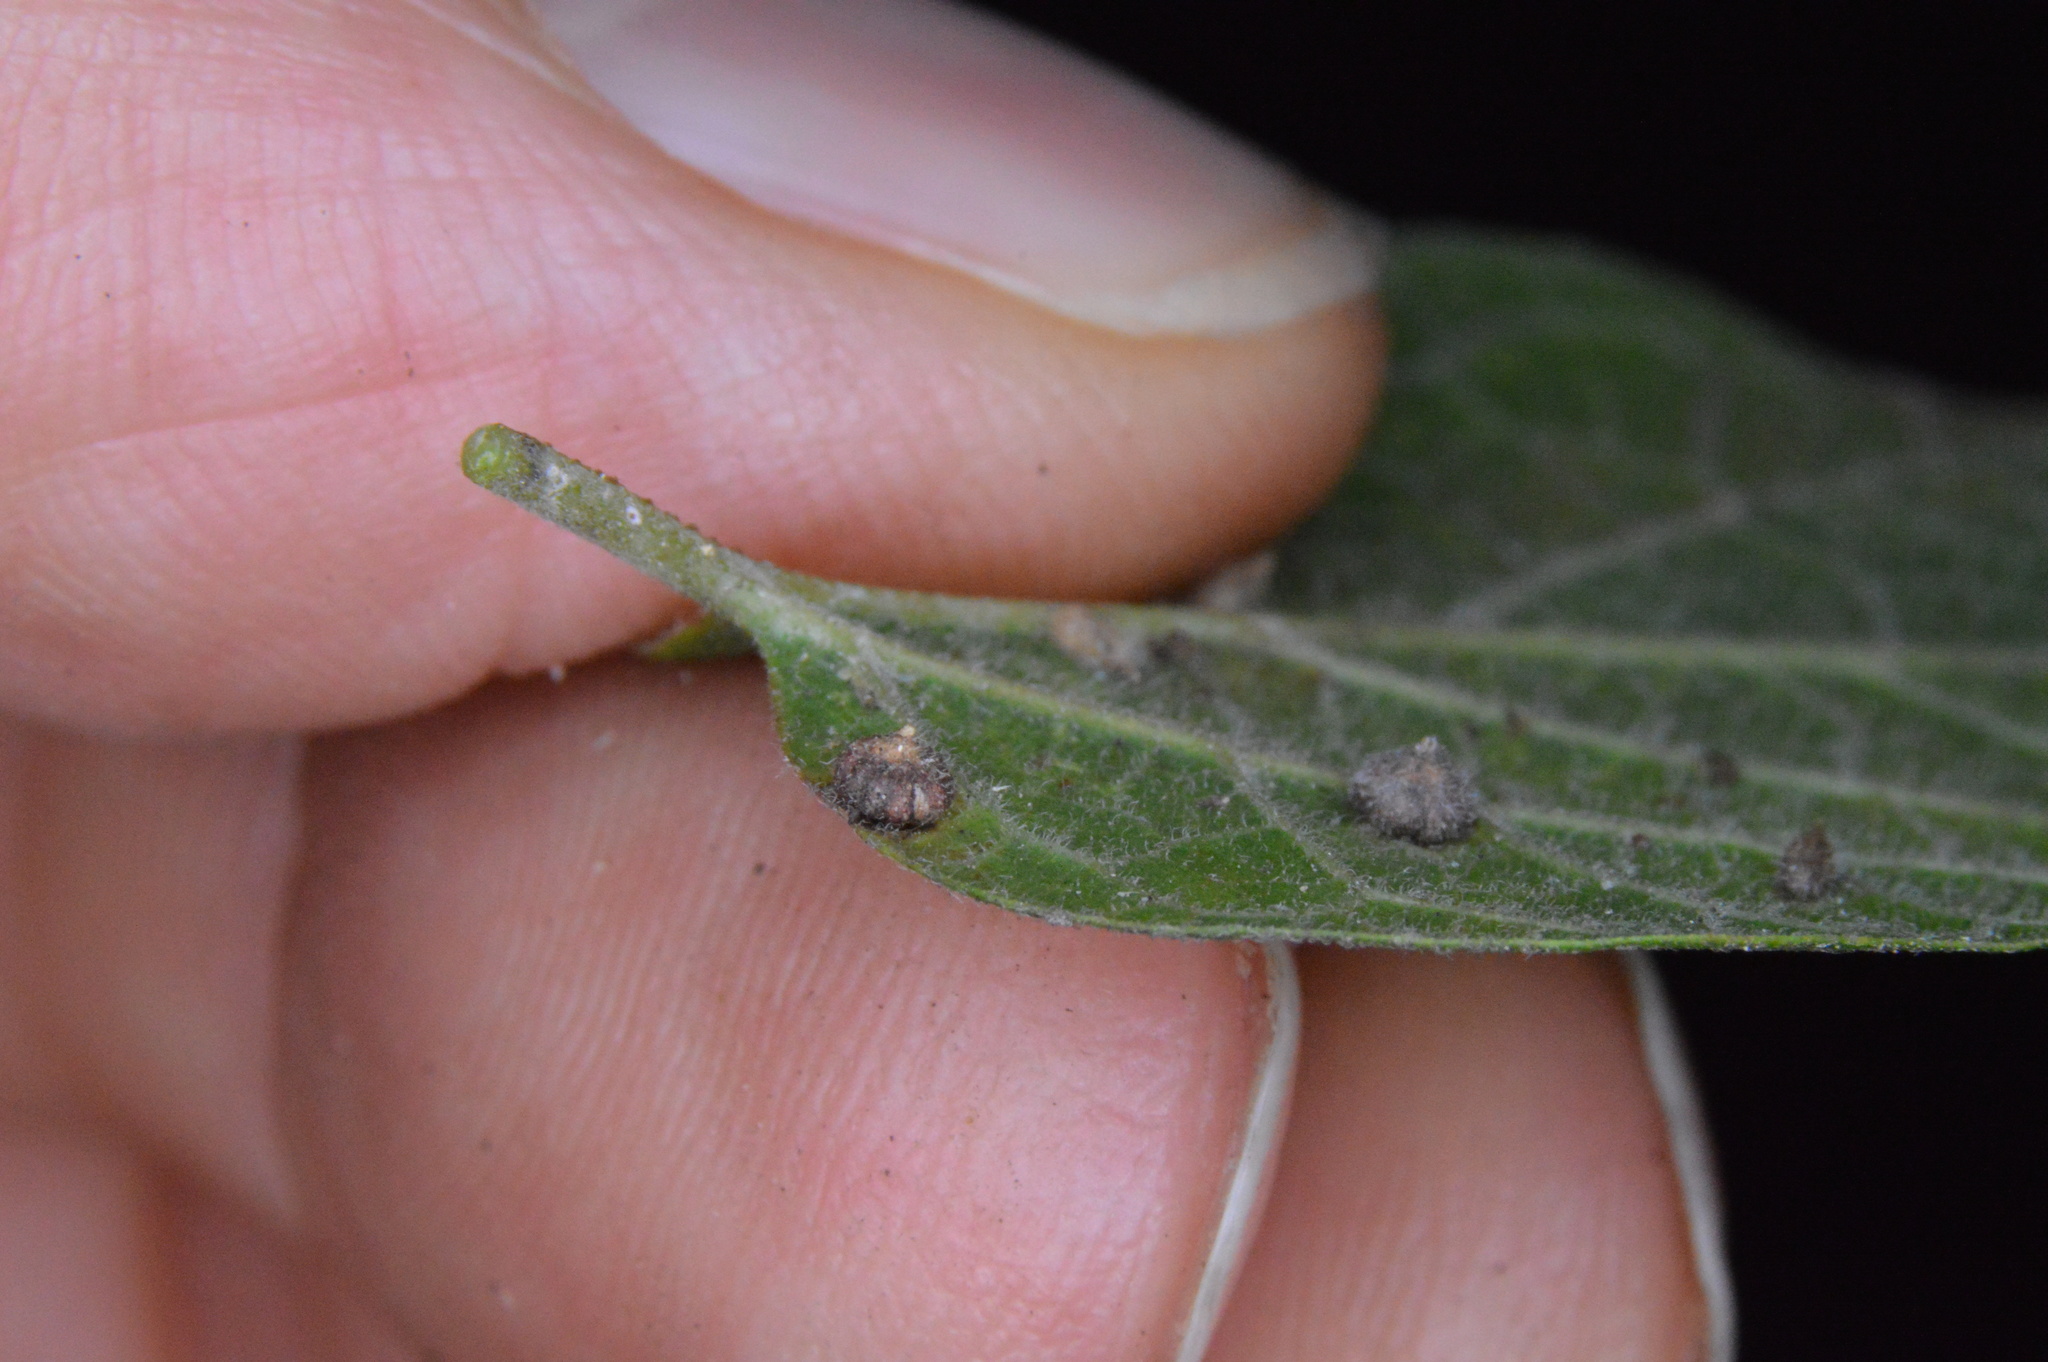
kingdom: Animalia
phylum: Arthropoda
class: Insecta
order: Diptera
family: Cecidomyiidae
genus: Celticecis
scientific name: Celticecis capsularis
